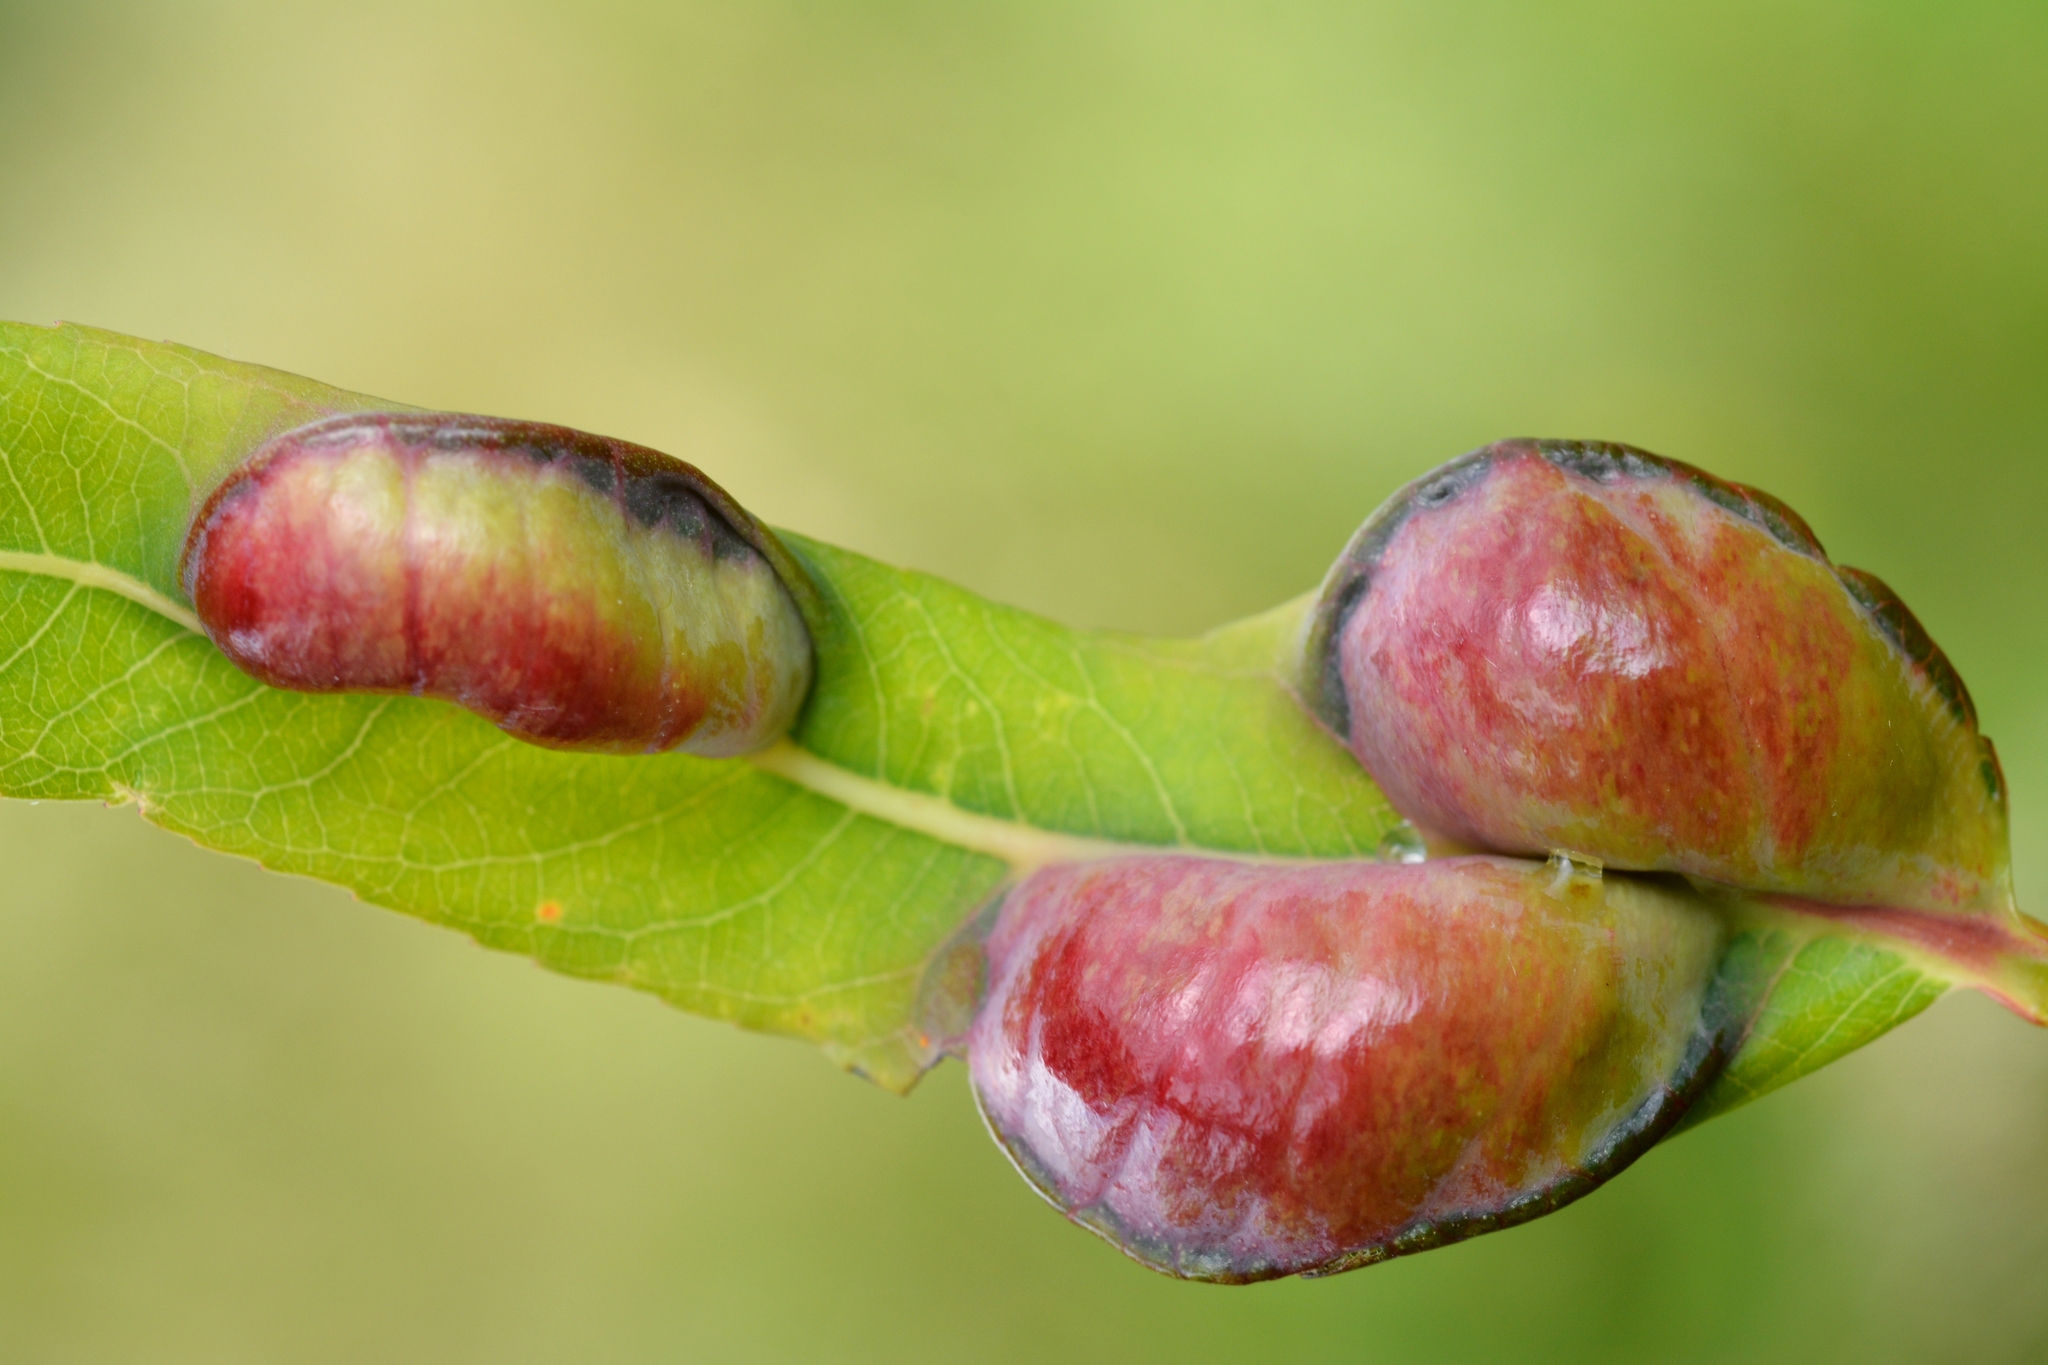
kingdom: Animalia
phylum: Arthropoda
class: Insecta
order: Hymenoptera
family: Tenthredinidae
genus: Pontania
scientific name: Pontania vesicator
